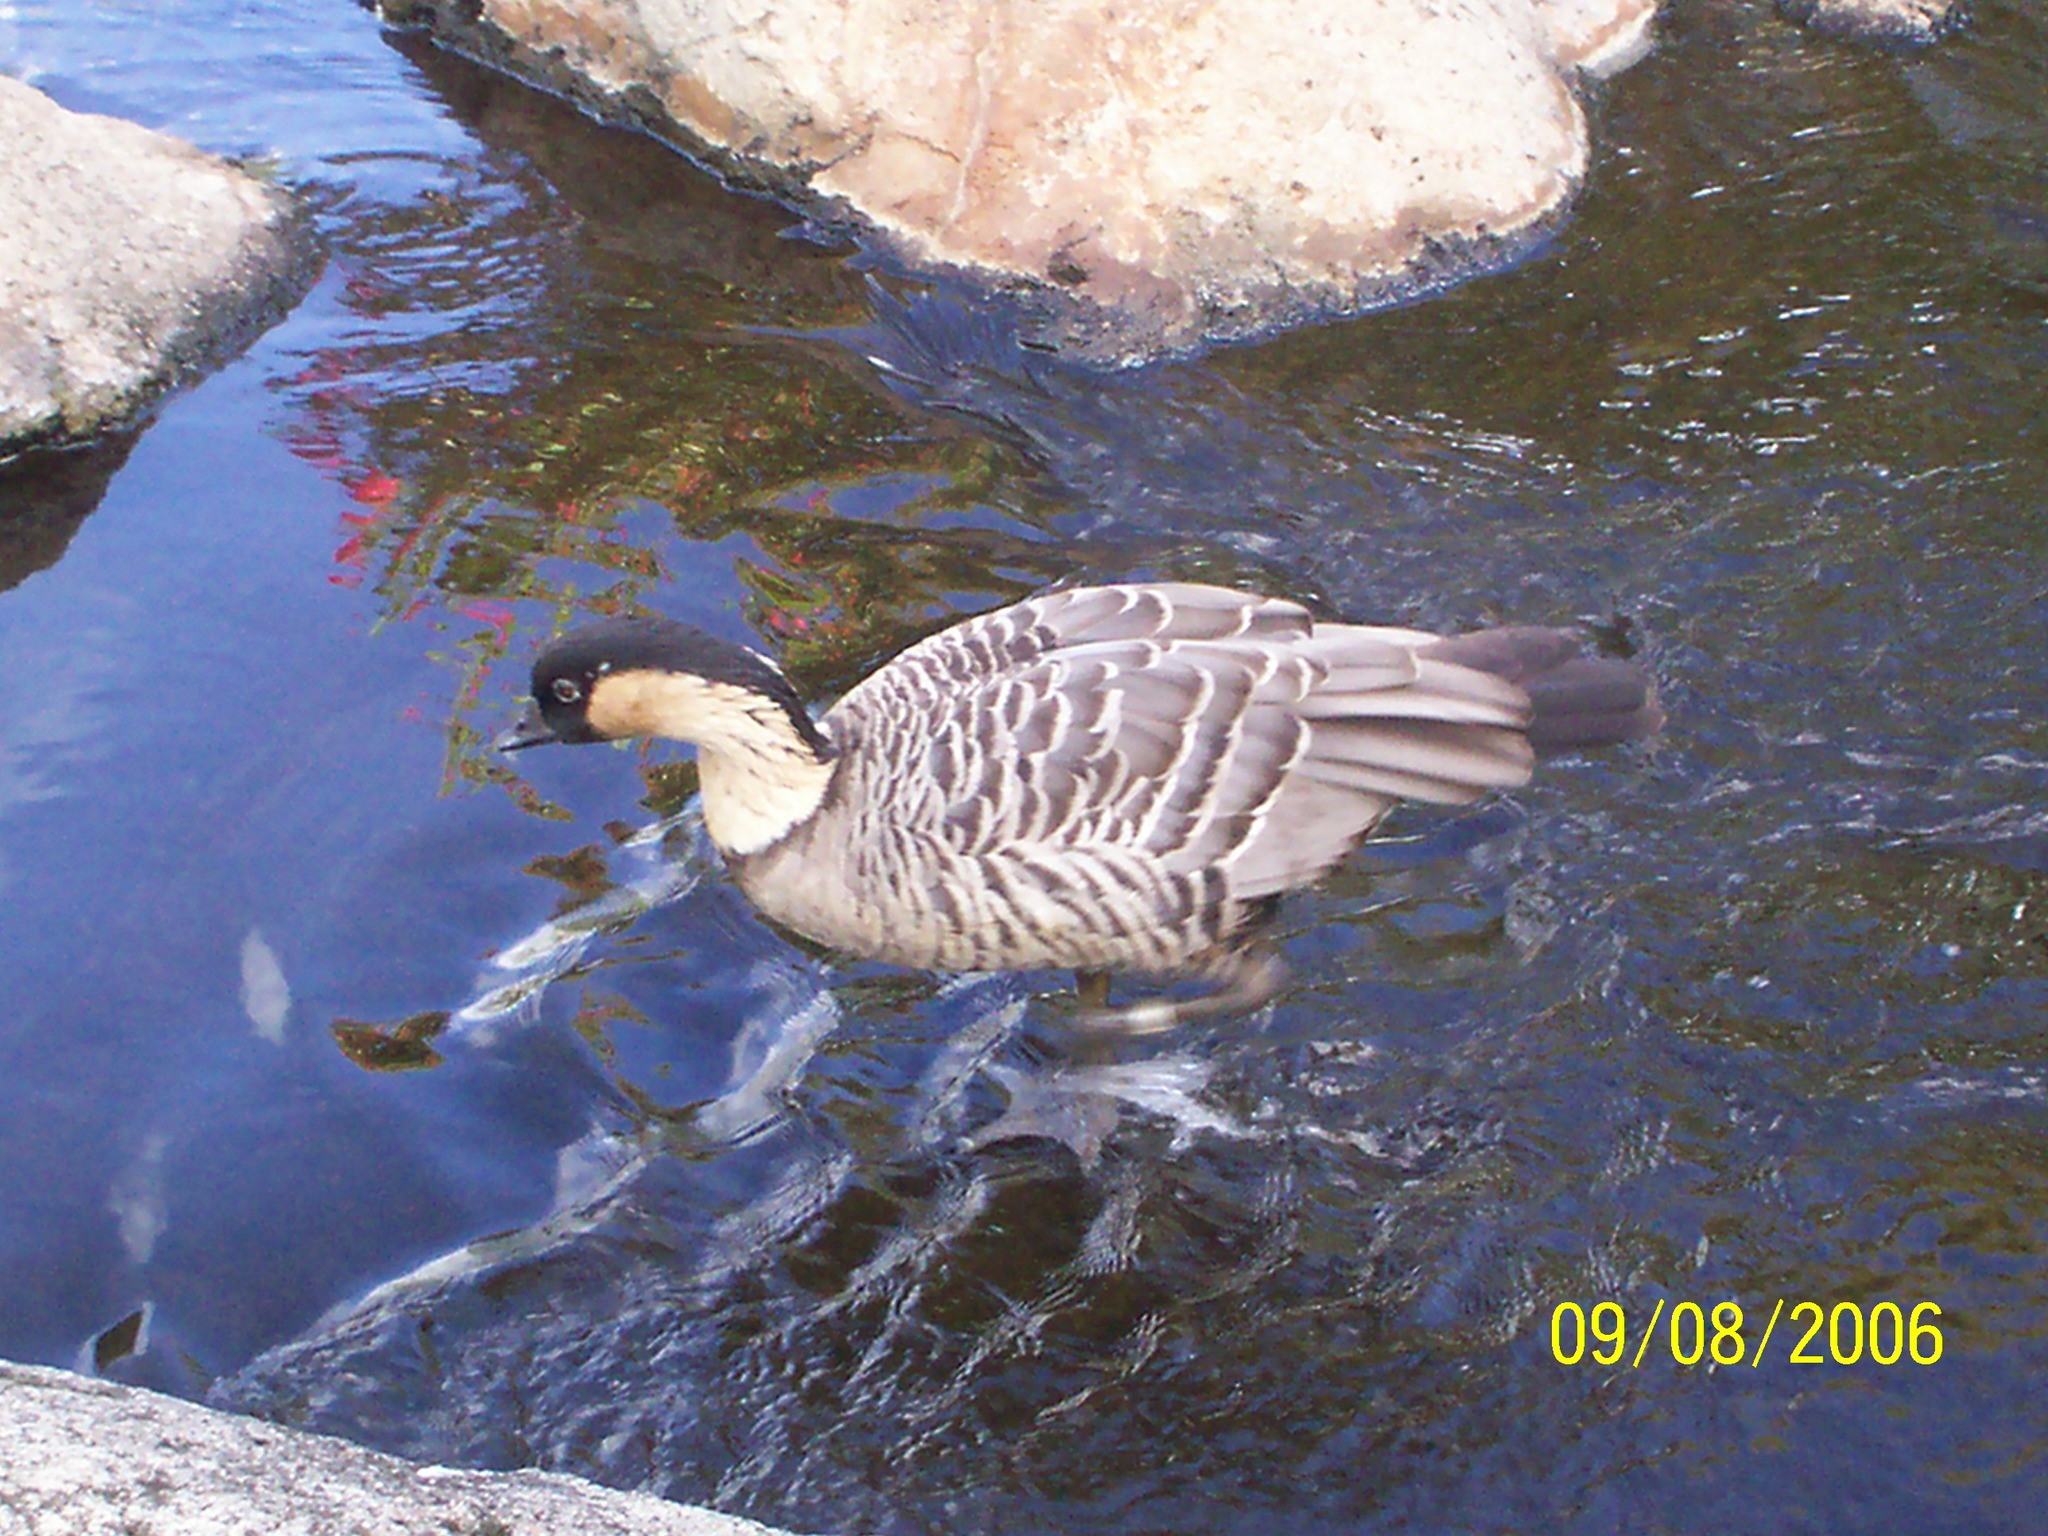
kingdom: Animalia
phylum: Chordata
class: Aves
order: Anseriformes
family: Anatidae
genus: Branta
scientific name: Branta sandvicensis
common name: Nene
